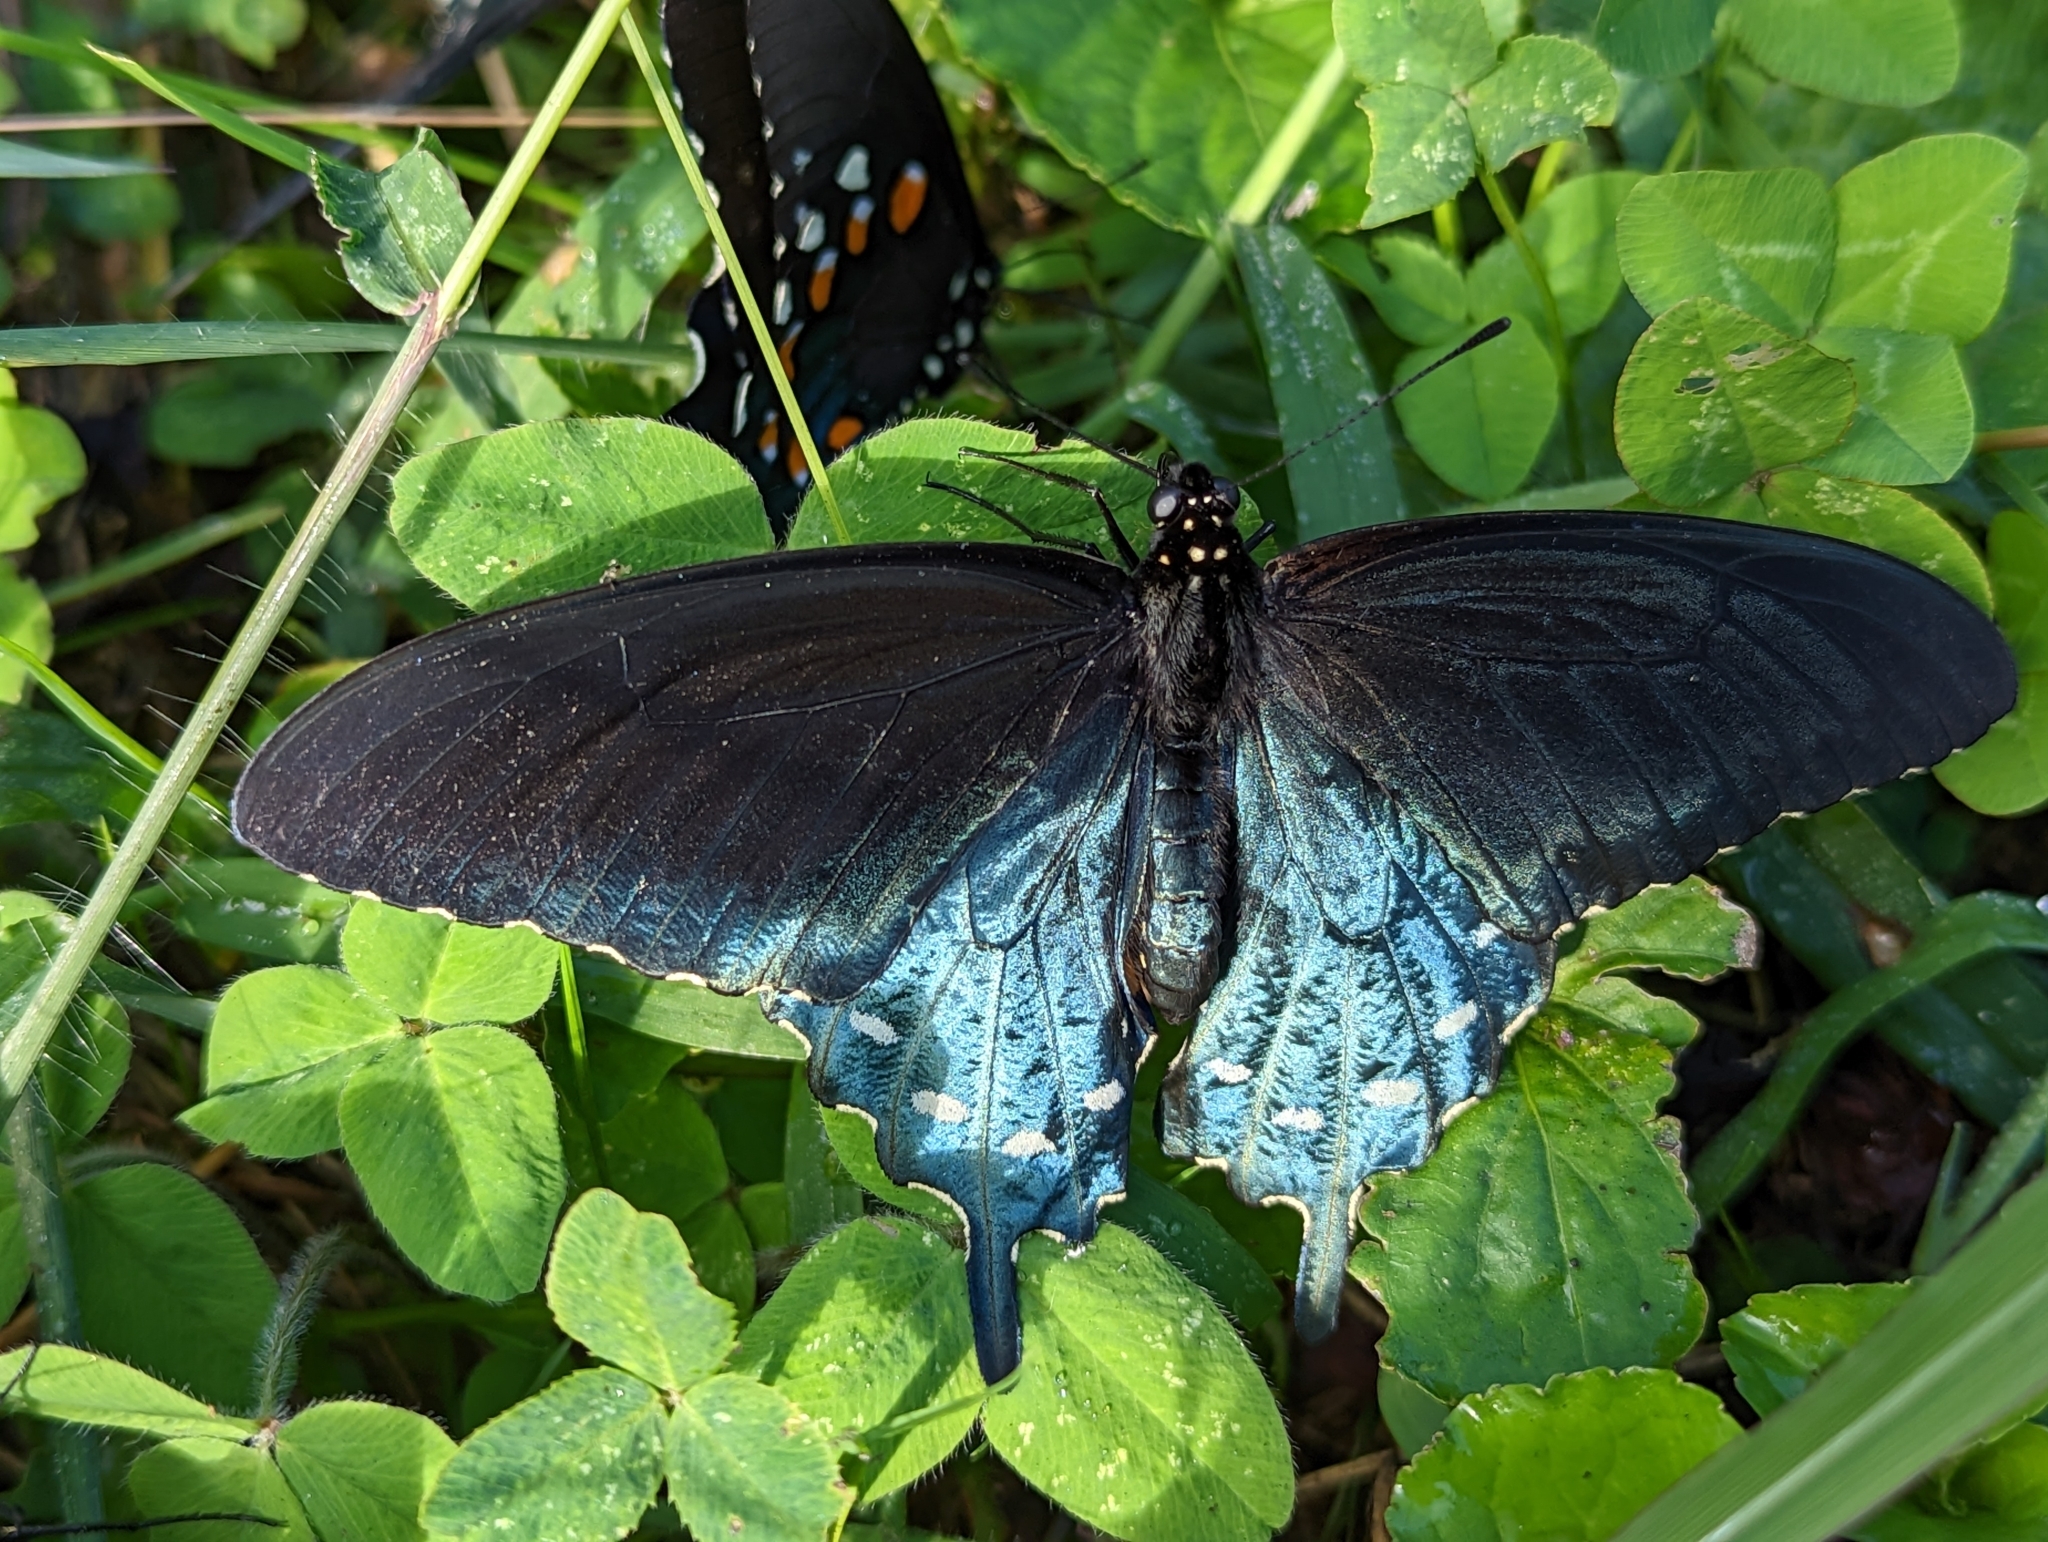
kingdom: Animalia
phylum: Arthropoda
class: Insecta
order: Lepidoptera
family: Papilionidae
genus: Battus
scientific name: Battus philenor
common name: Pipevine swallowtail
